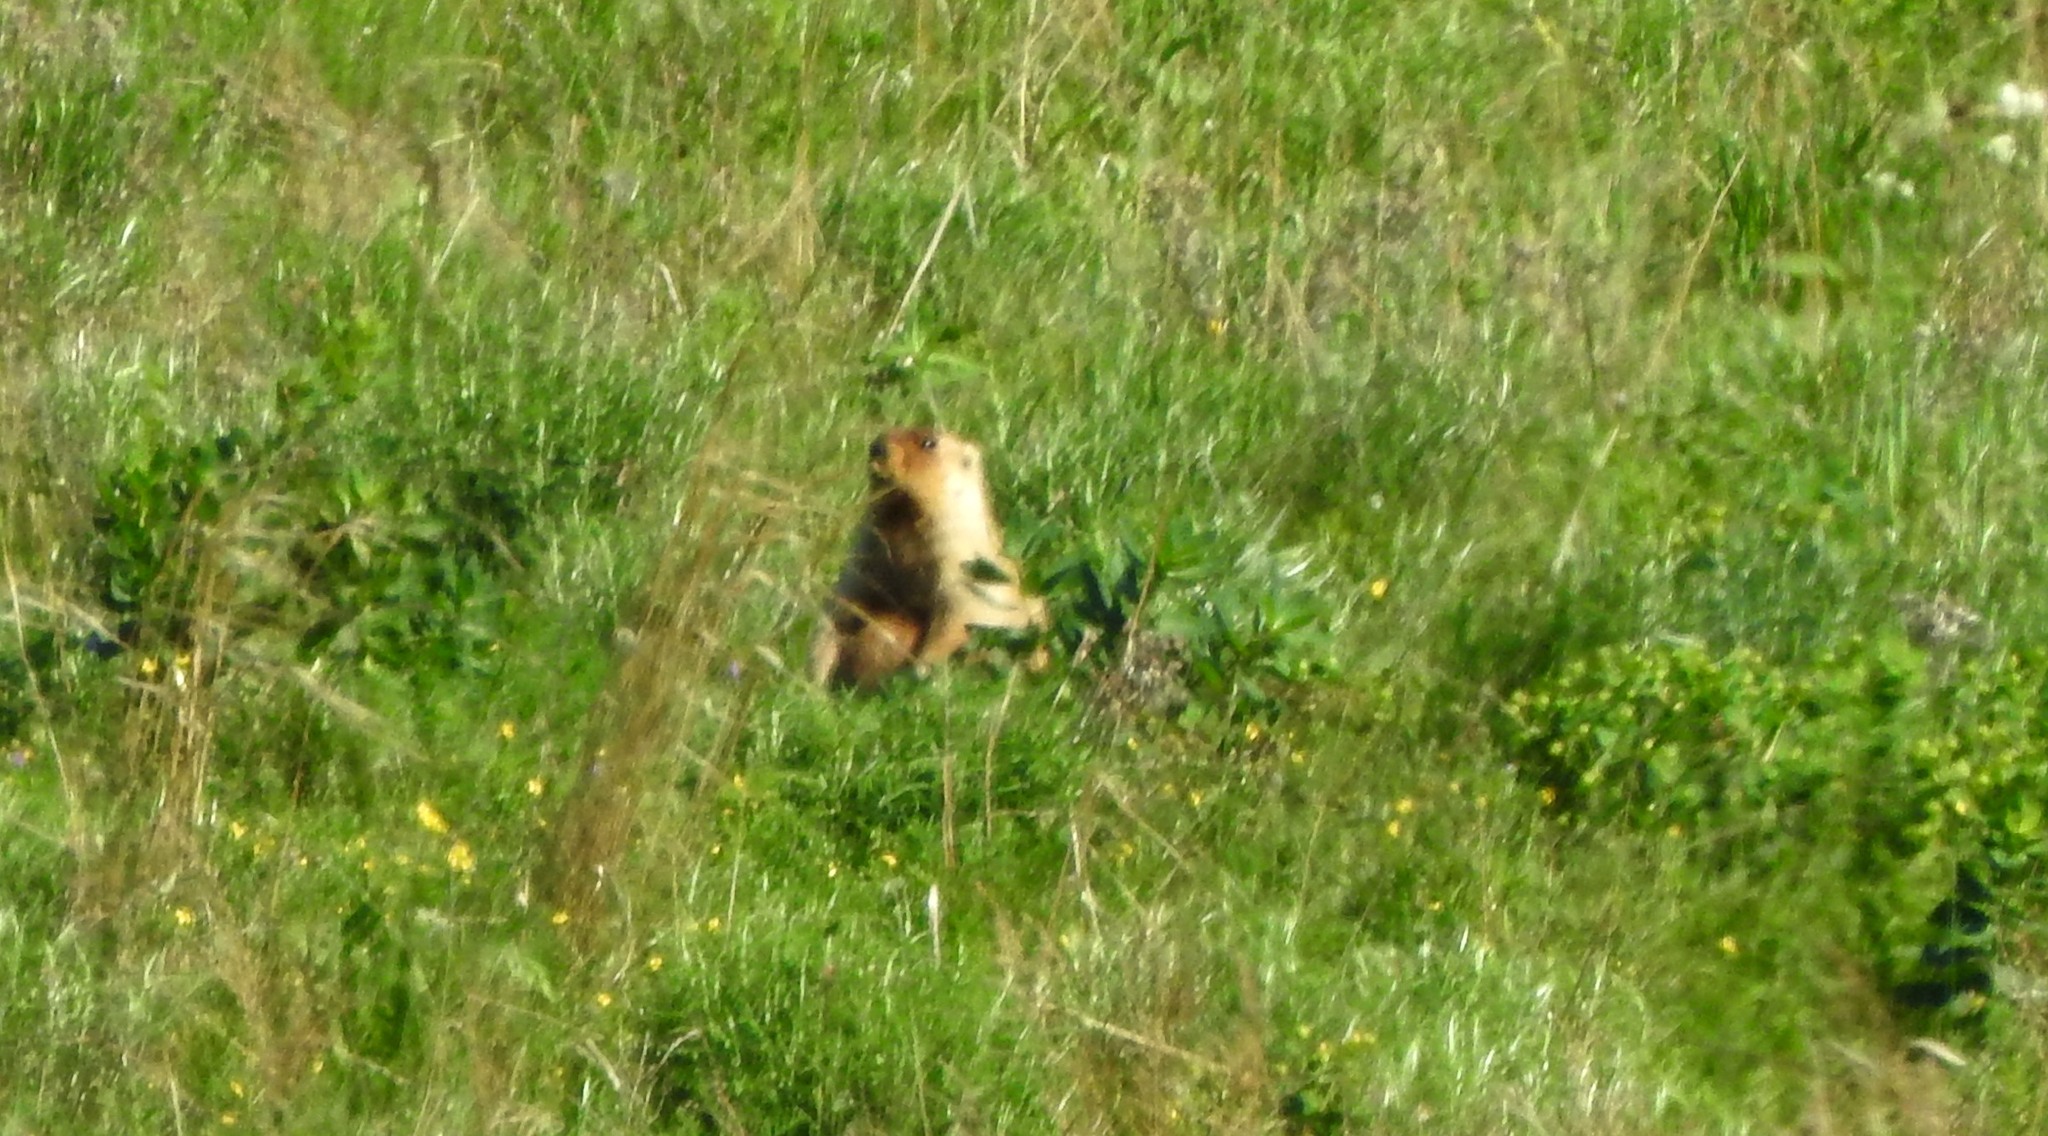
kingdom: Animalia
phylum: Chordata
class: Mammalia
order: Rodentia
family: Sciuridae
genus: Marmota
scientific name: Marmota sibirica
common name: Tarbagan marmot
